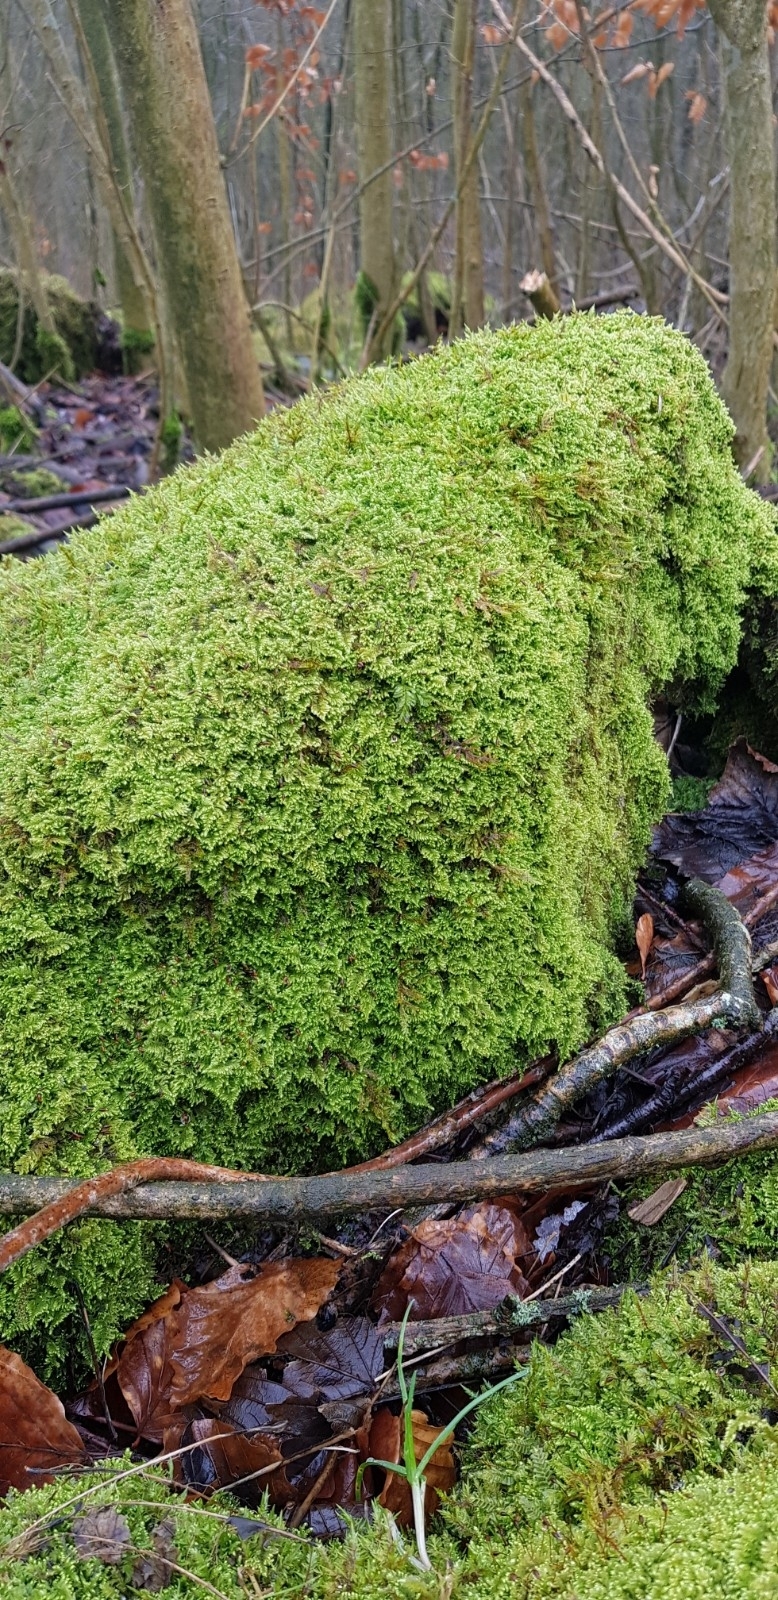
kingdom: Plantae
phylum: Bryophyta
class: Bryopsida
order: Hypnales
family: Myuriaceae
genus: Ctenidium
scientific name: Ctenidium molluscum
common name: Chalk comb-moss
